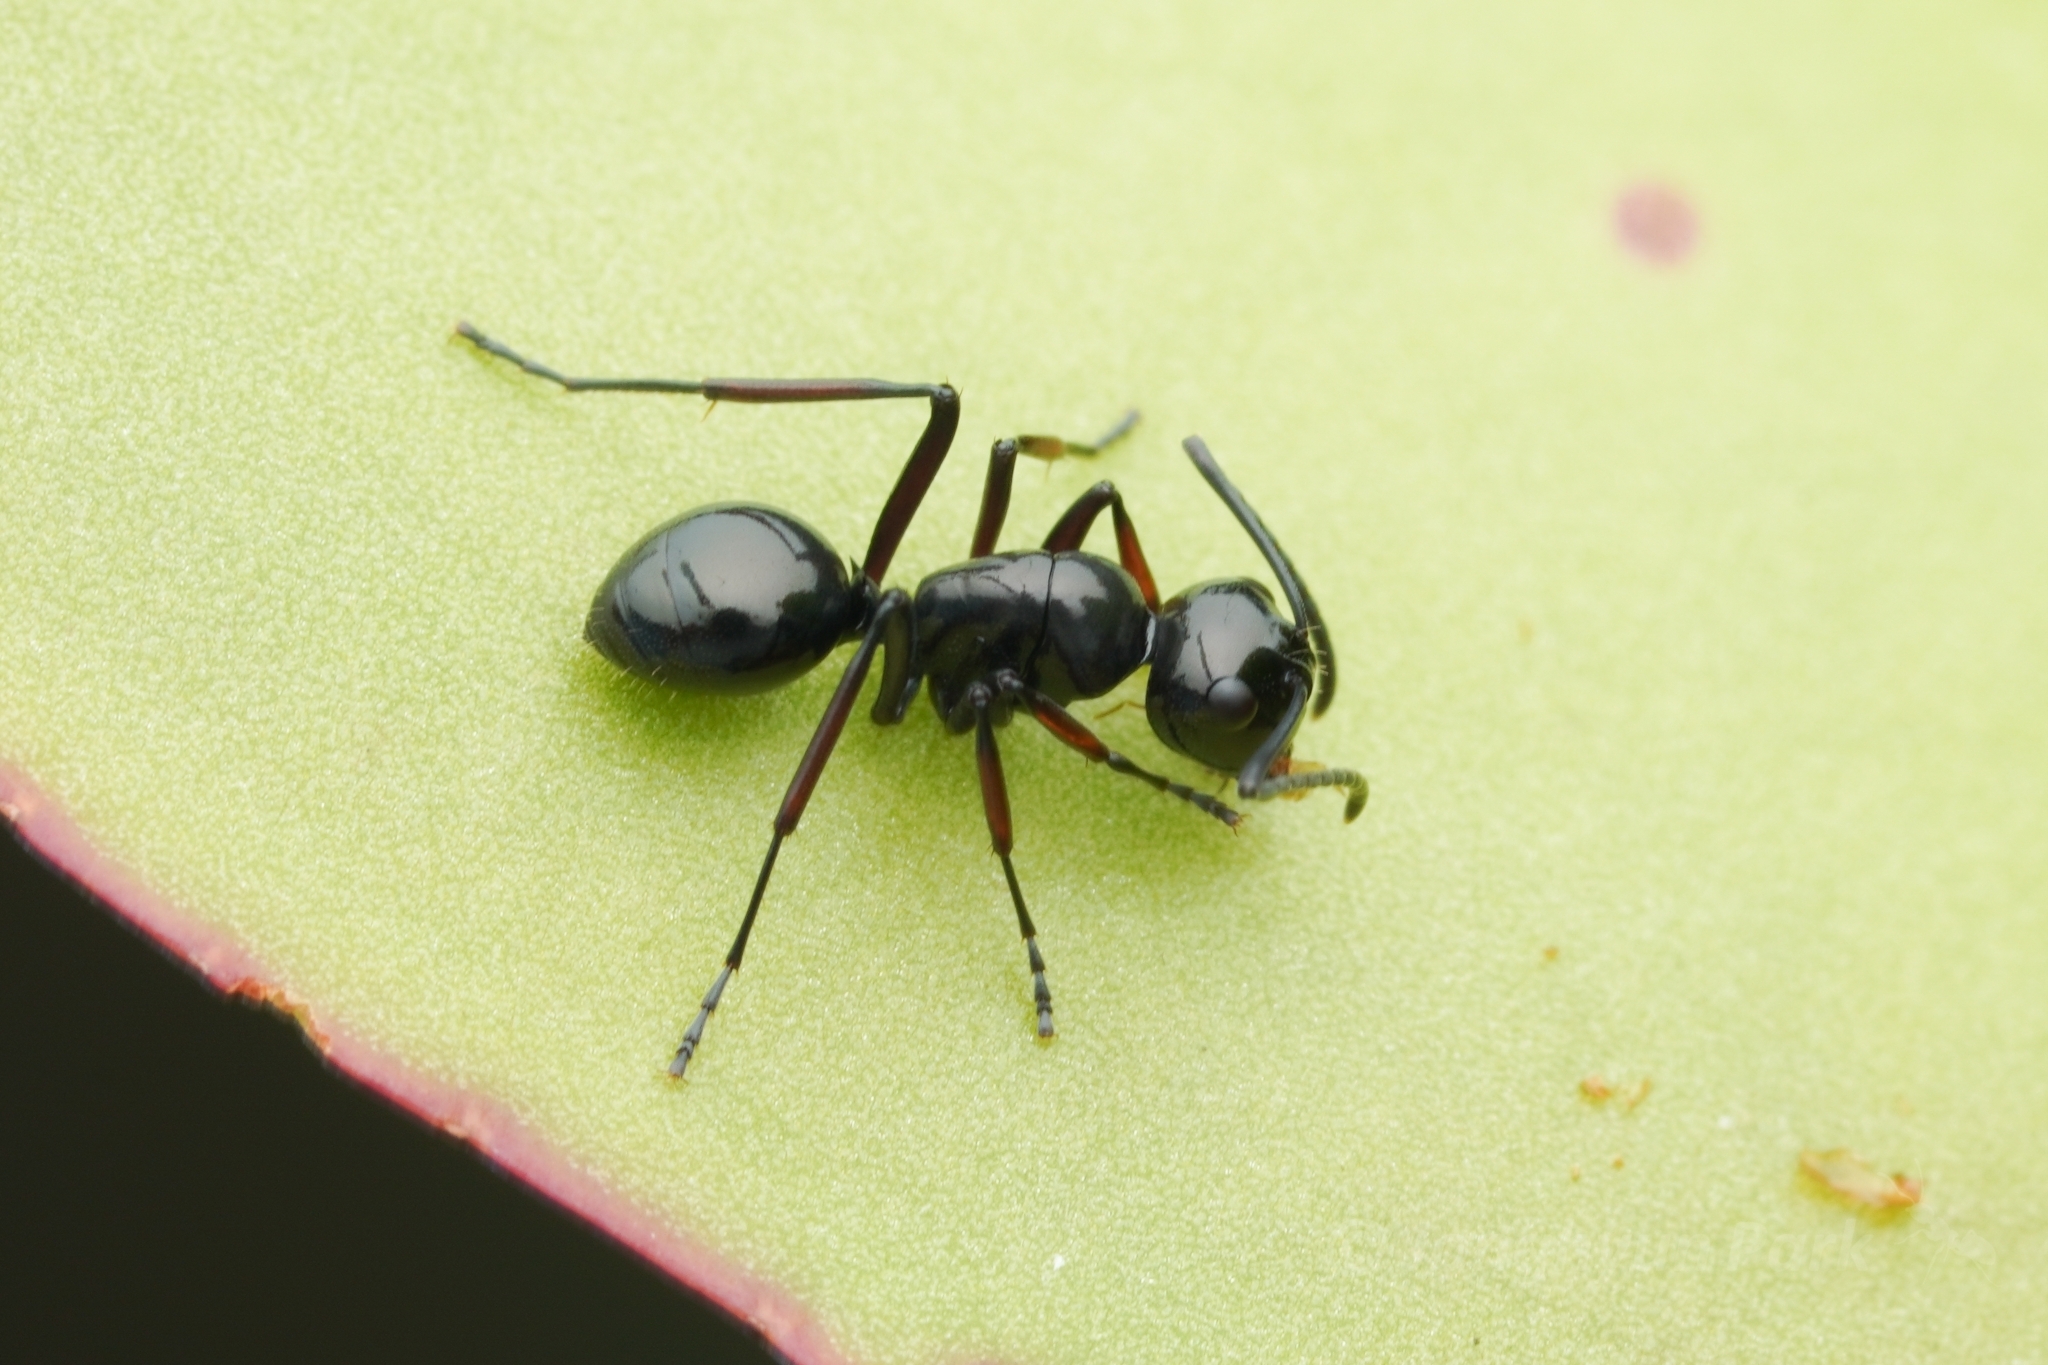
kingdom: Animalia
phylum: Arthropoda
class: Insecta
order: Hymenoptera
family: Formicidae
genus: Polyrhachis
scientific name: Polyrhachis lepida
